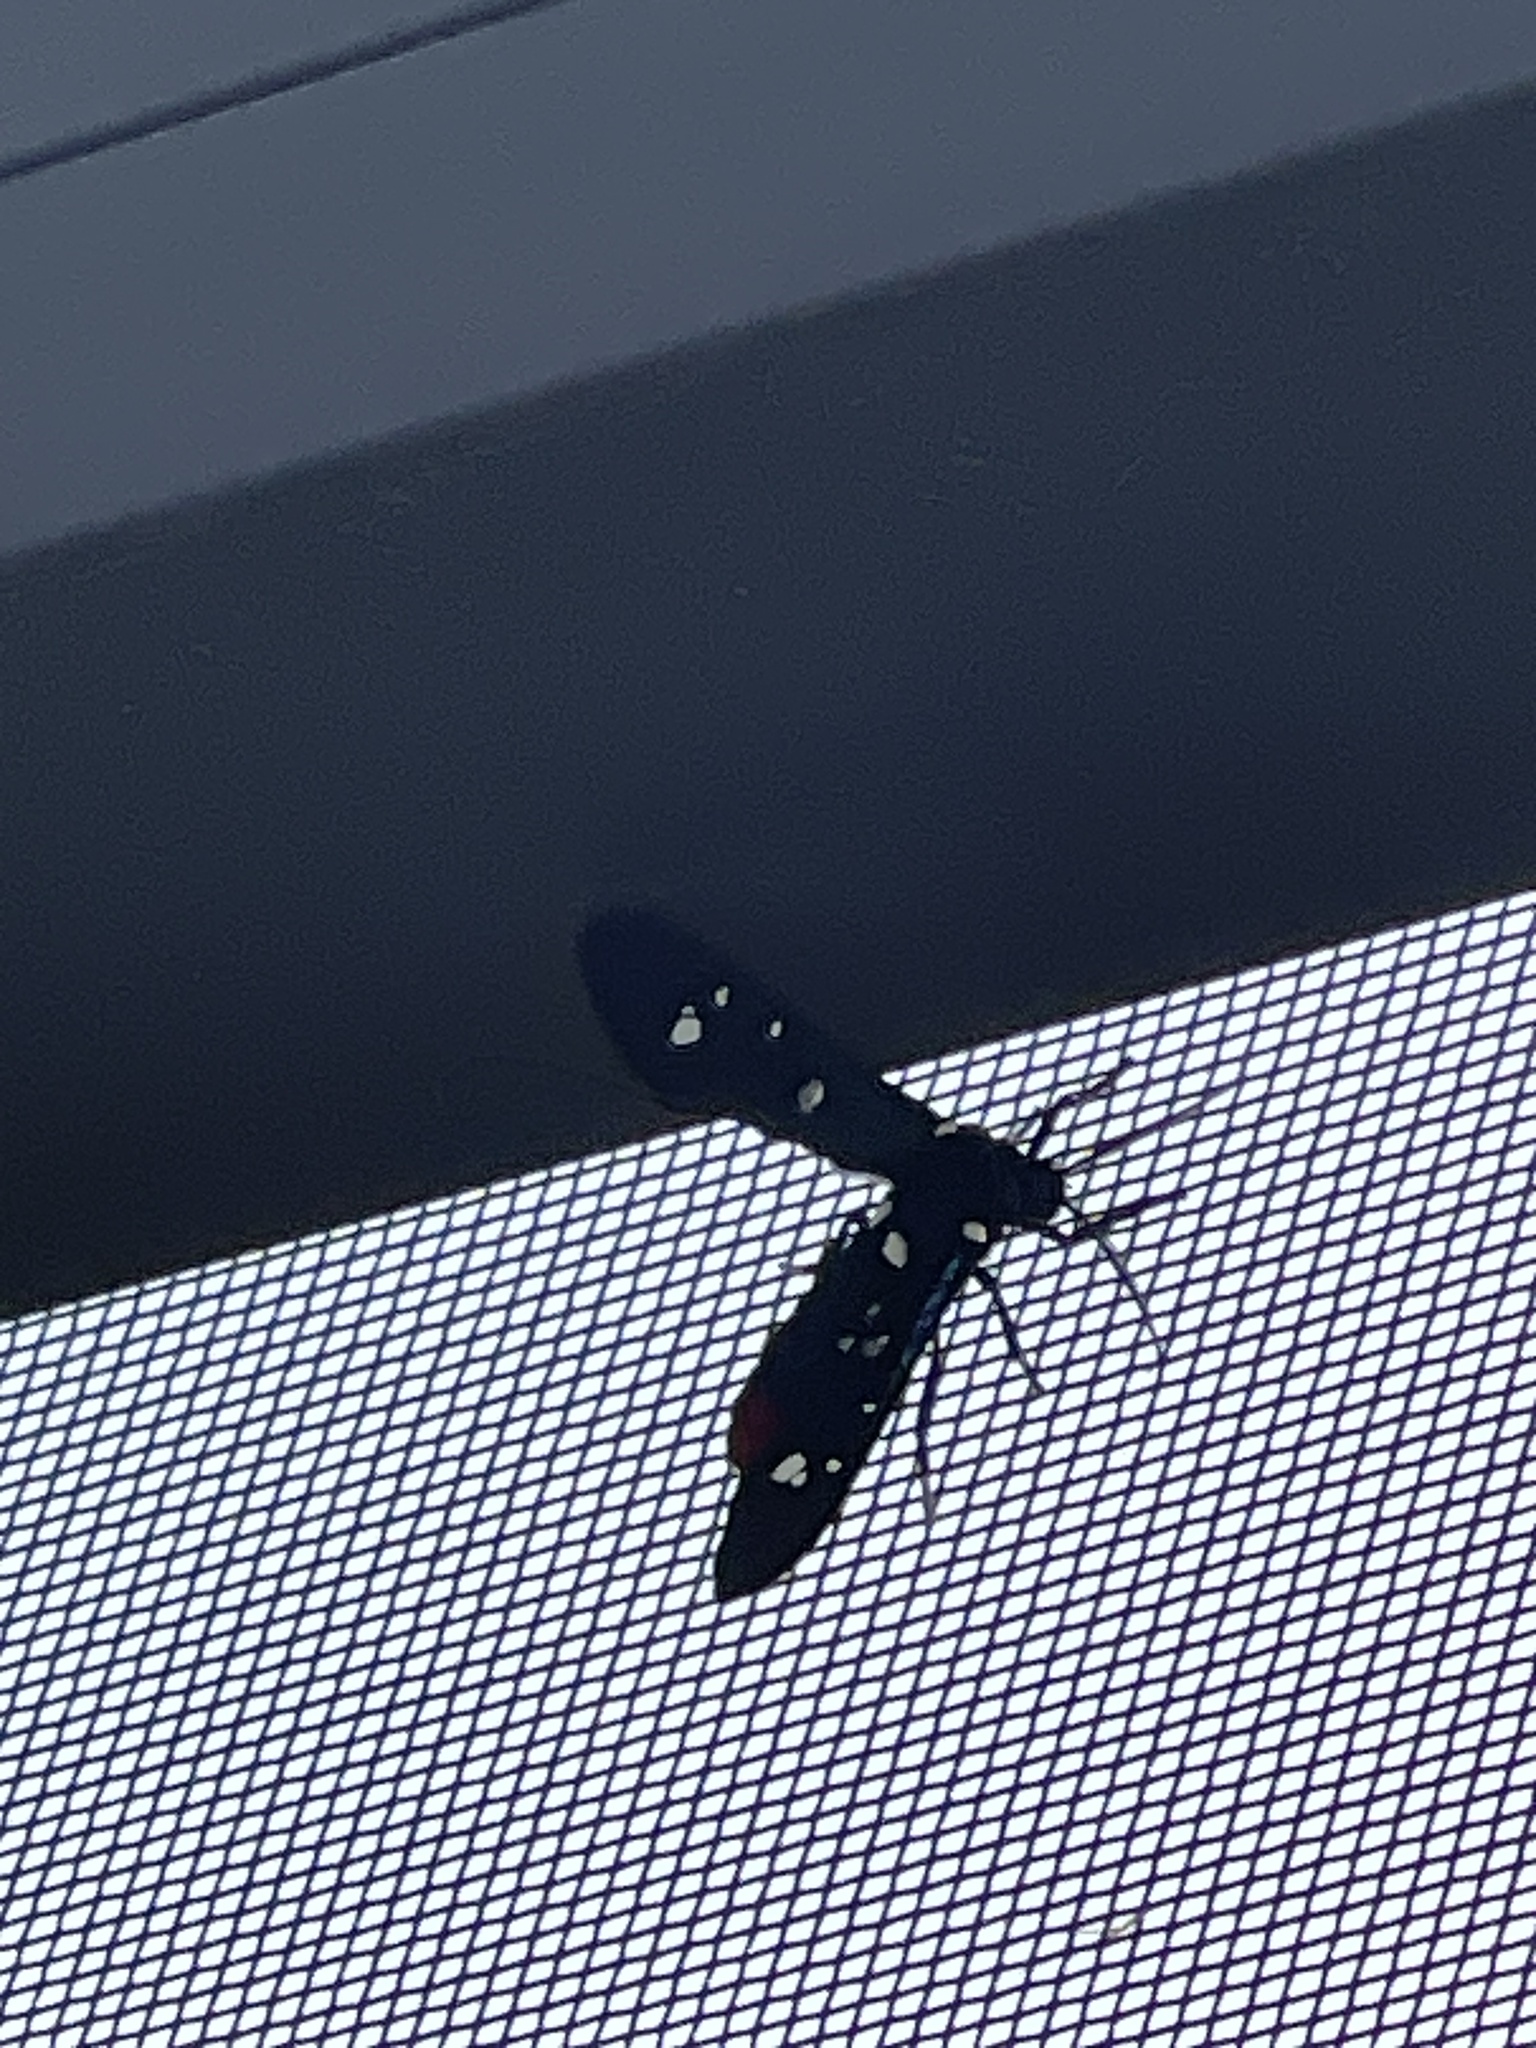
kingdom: Animalia
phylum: Arthropoda
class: Insecta
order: Lepidoptera
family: Erebidae
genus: Syntomeida
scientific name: Syntomeida epilais
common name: Polka-dot wasp moth
